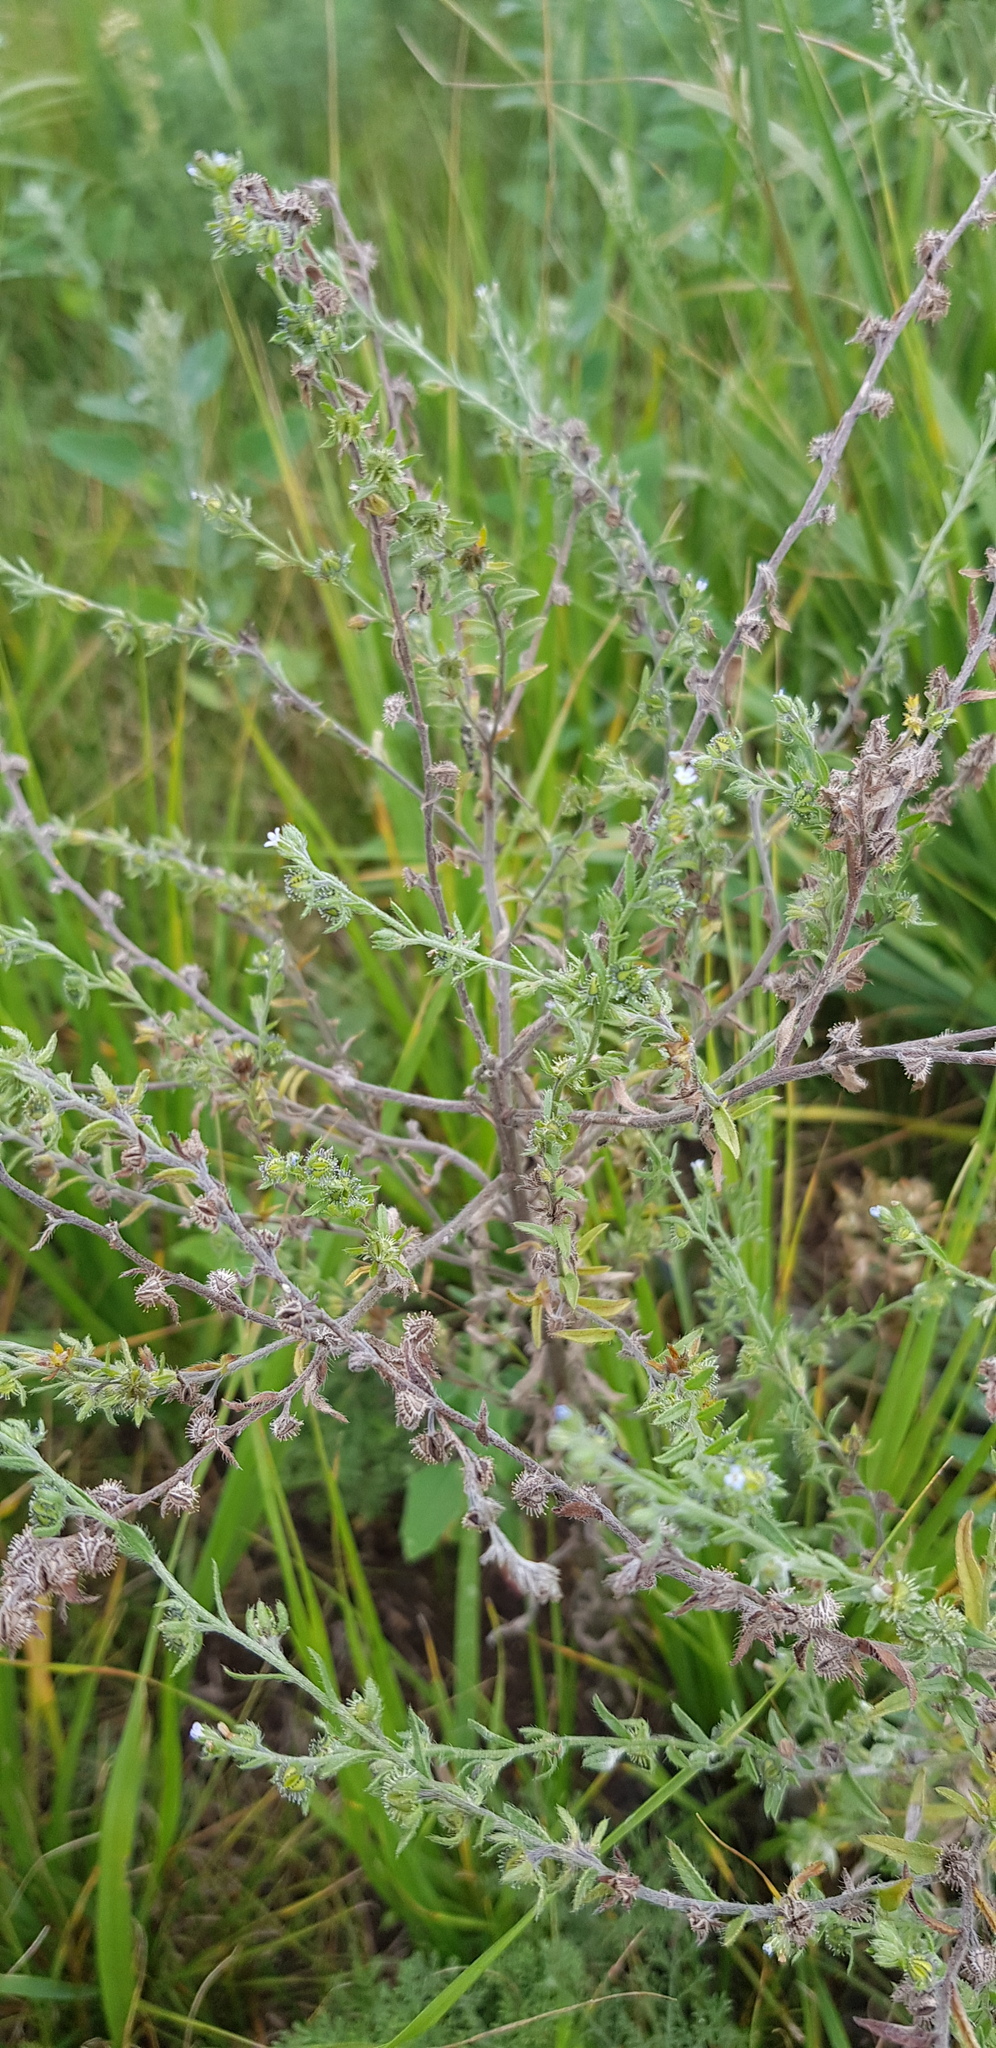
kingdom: Plantae
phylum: Tracheophyta
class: Magnoliopsida
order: Boraginales
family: Boraginaceae
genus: Lappula
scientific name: Lappula squarrosa
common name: European stickseed
